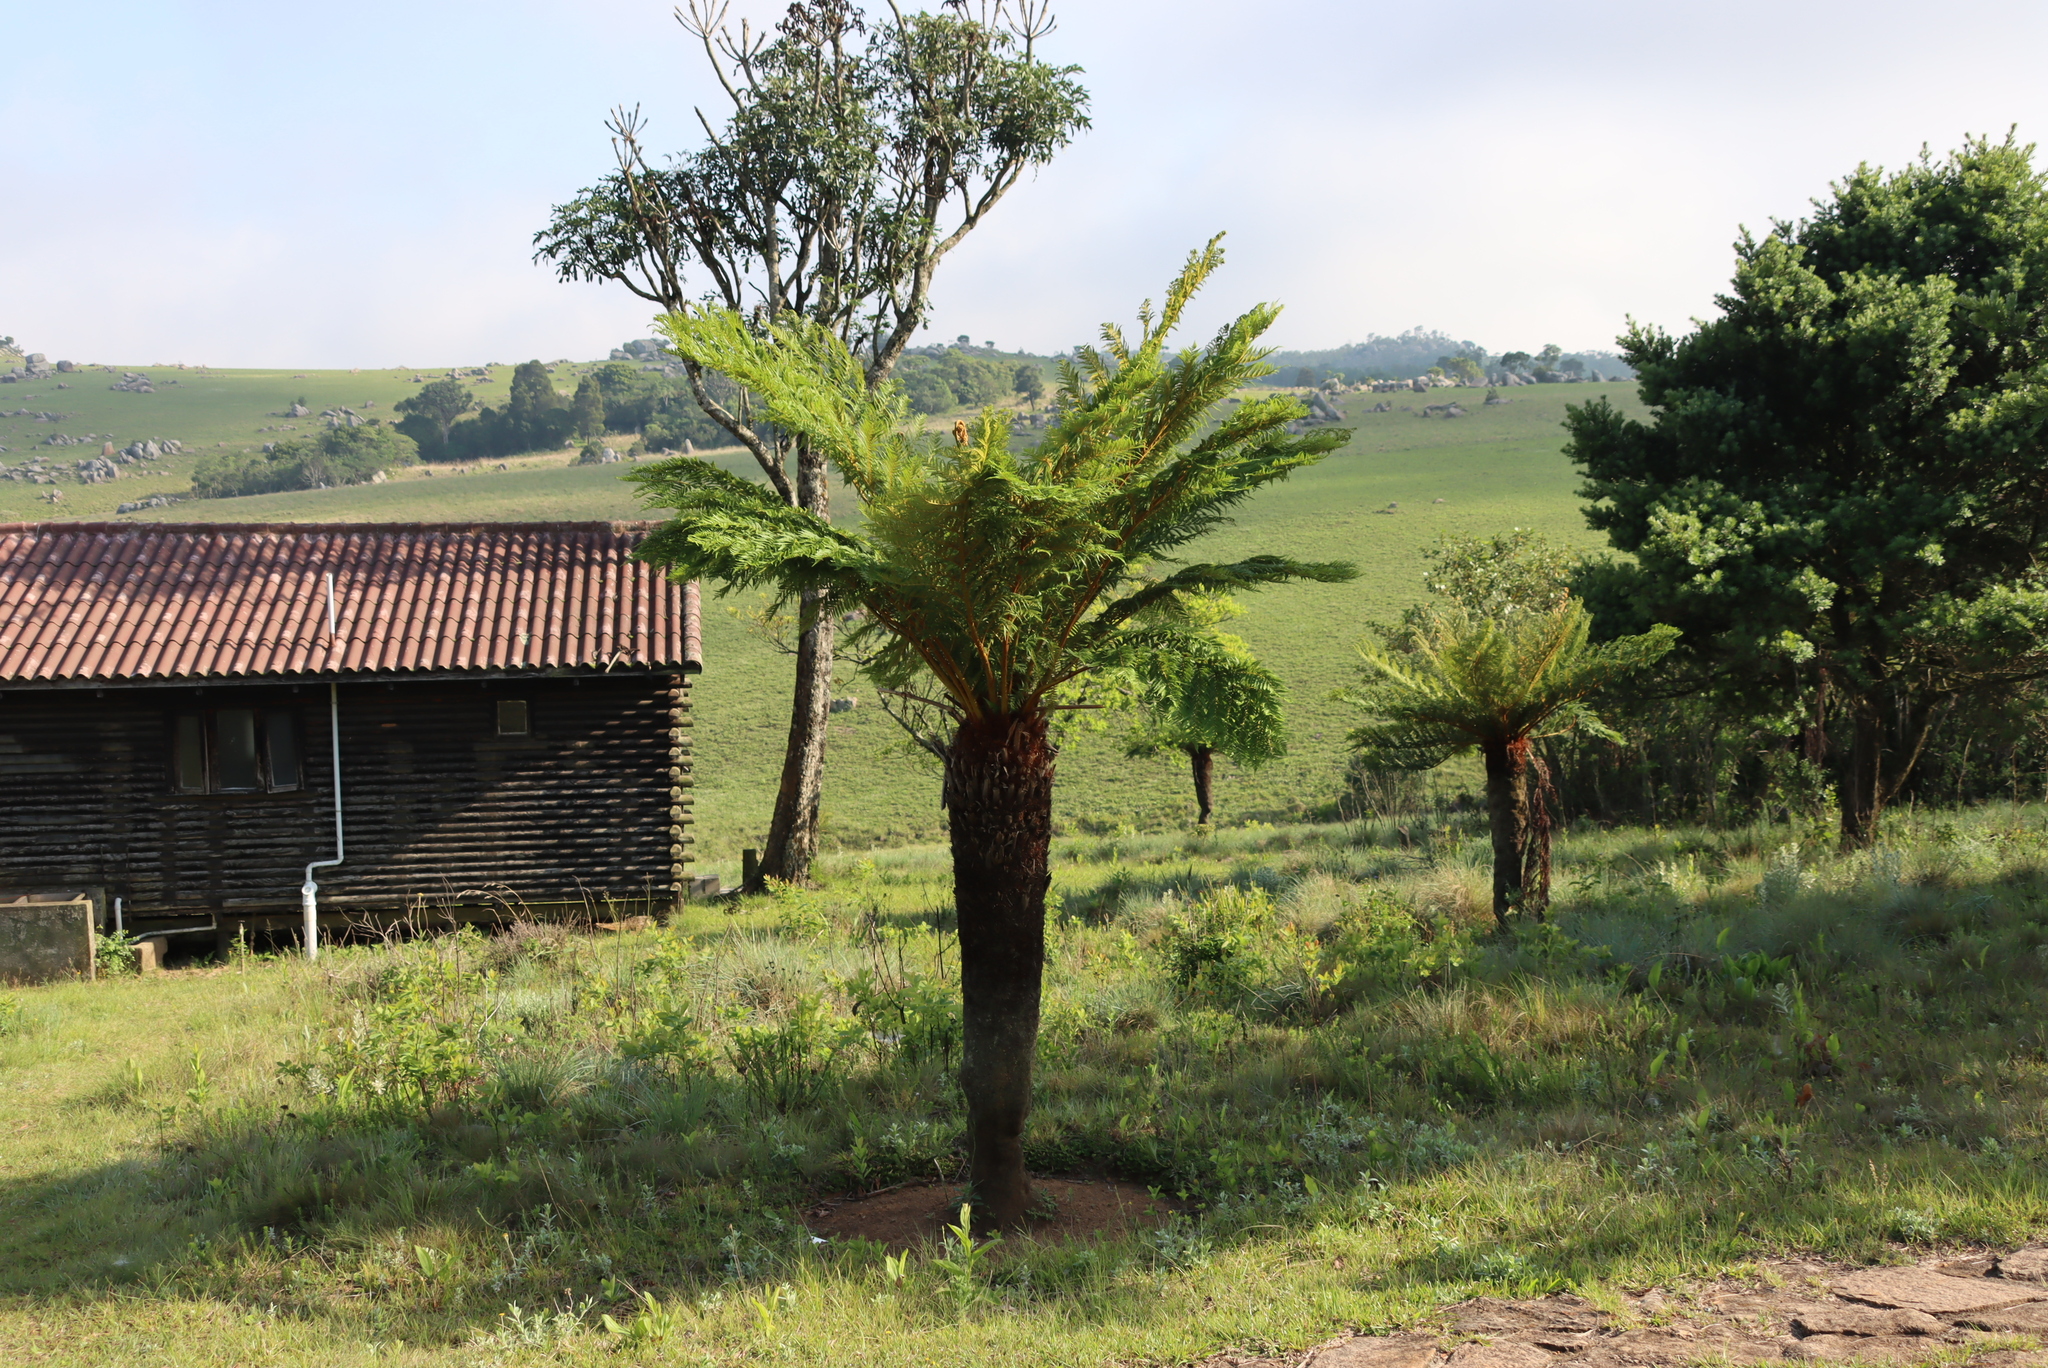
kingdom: Plantae
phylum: Tracheophyta
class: Polypodiopsida
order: Cyatheales
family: Cyatheaceae
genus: Alsophila
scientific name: Alsophila dregei
